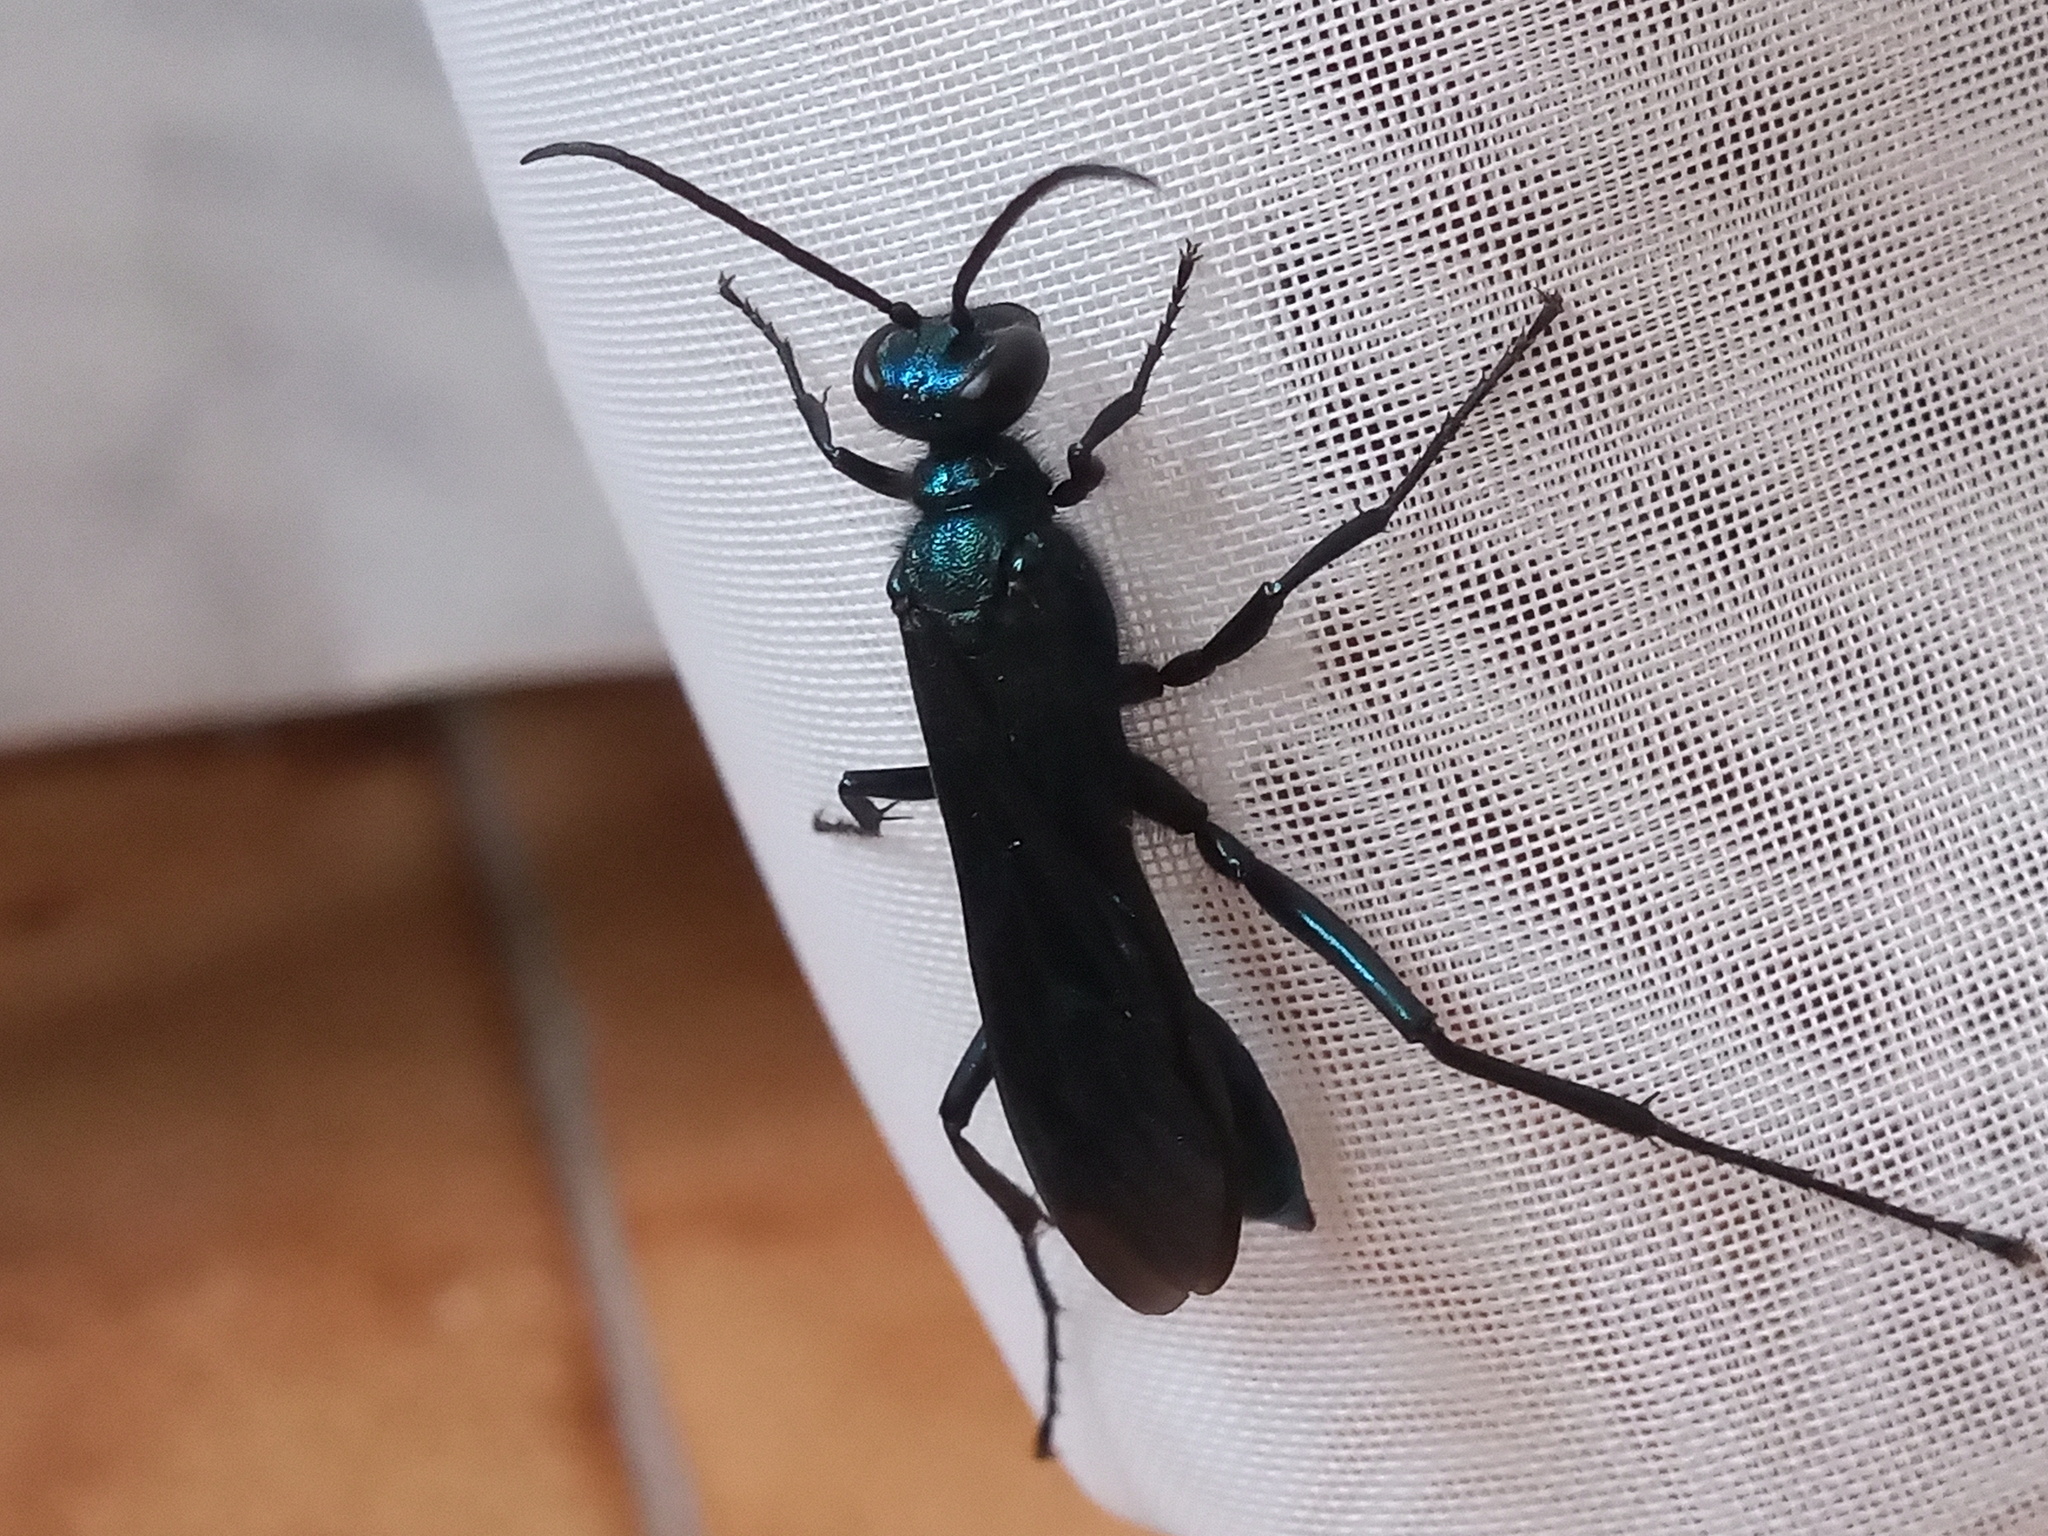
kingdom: Animalia
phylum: Arthropoda
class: Insecta
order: Hymenoptera
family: Sphecidae
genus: Chalybion
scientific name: Chalybion californicum
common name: Mud dauber
